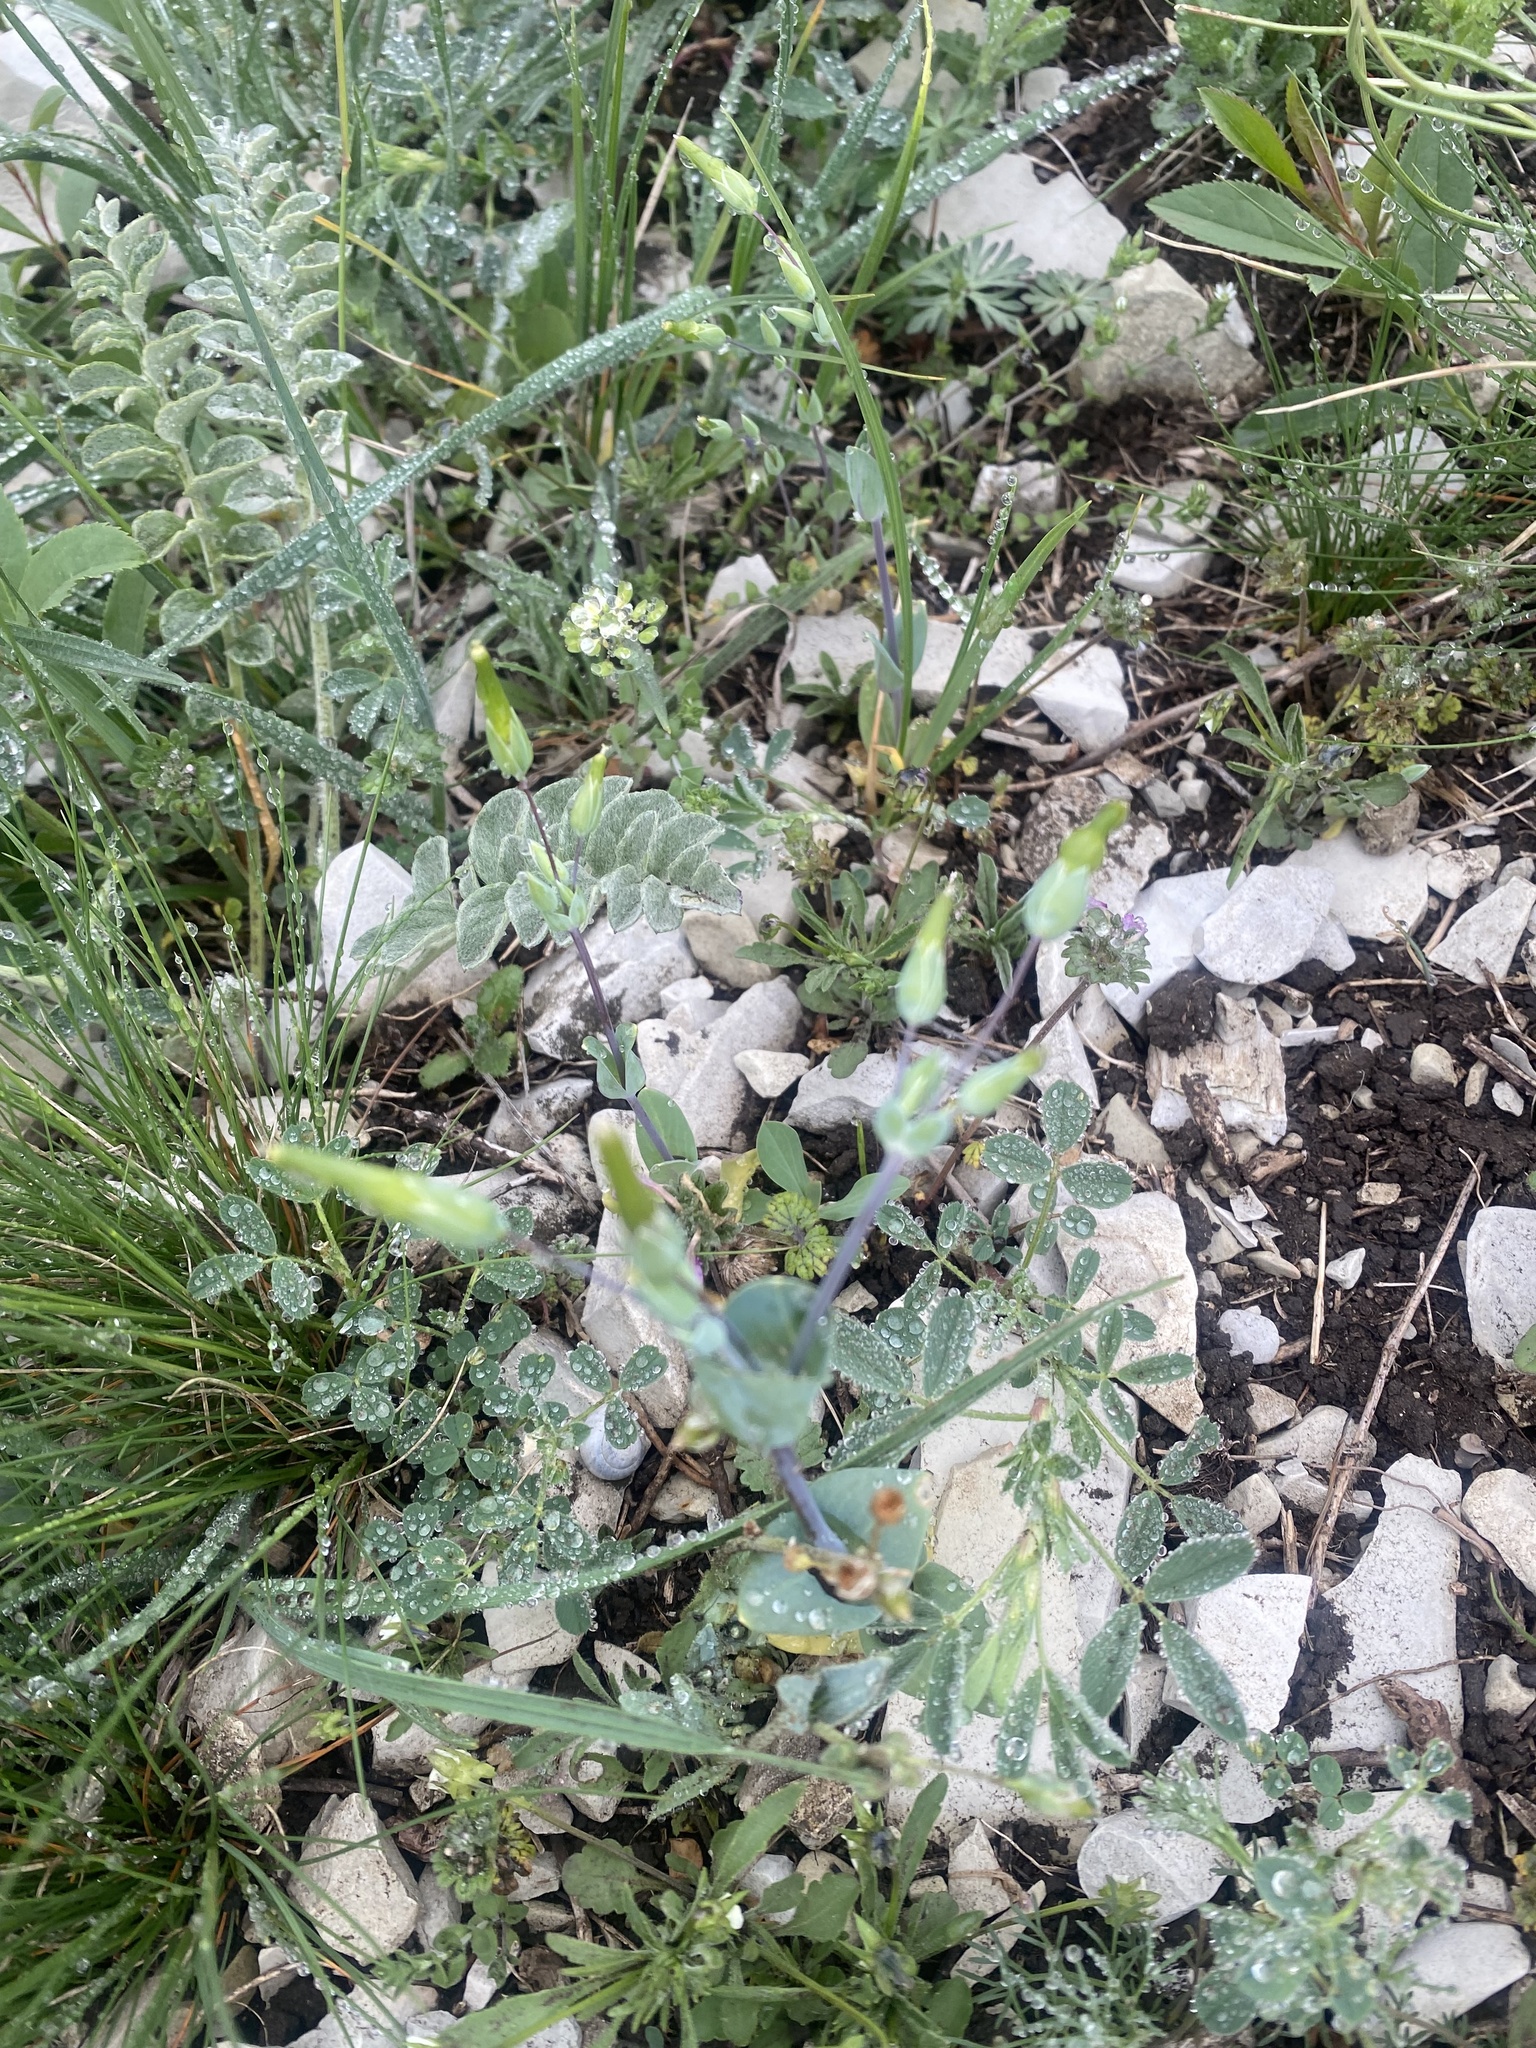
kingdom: Plantae
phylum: Tracheophyta
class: Magnoliopsida
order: Caryophyllales
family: Caryophyllaceae
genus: Holosteum
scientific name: Holosteum umbellatum
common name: Jagged chickweed
